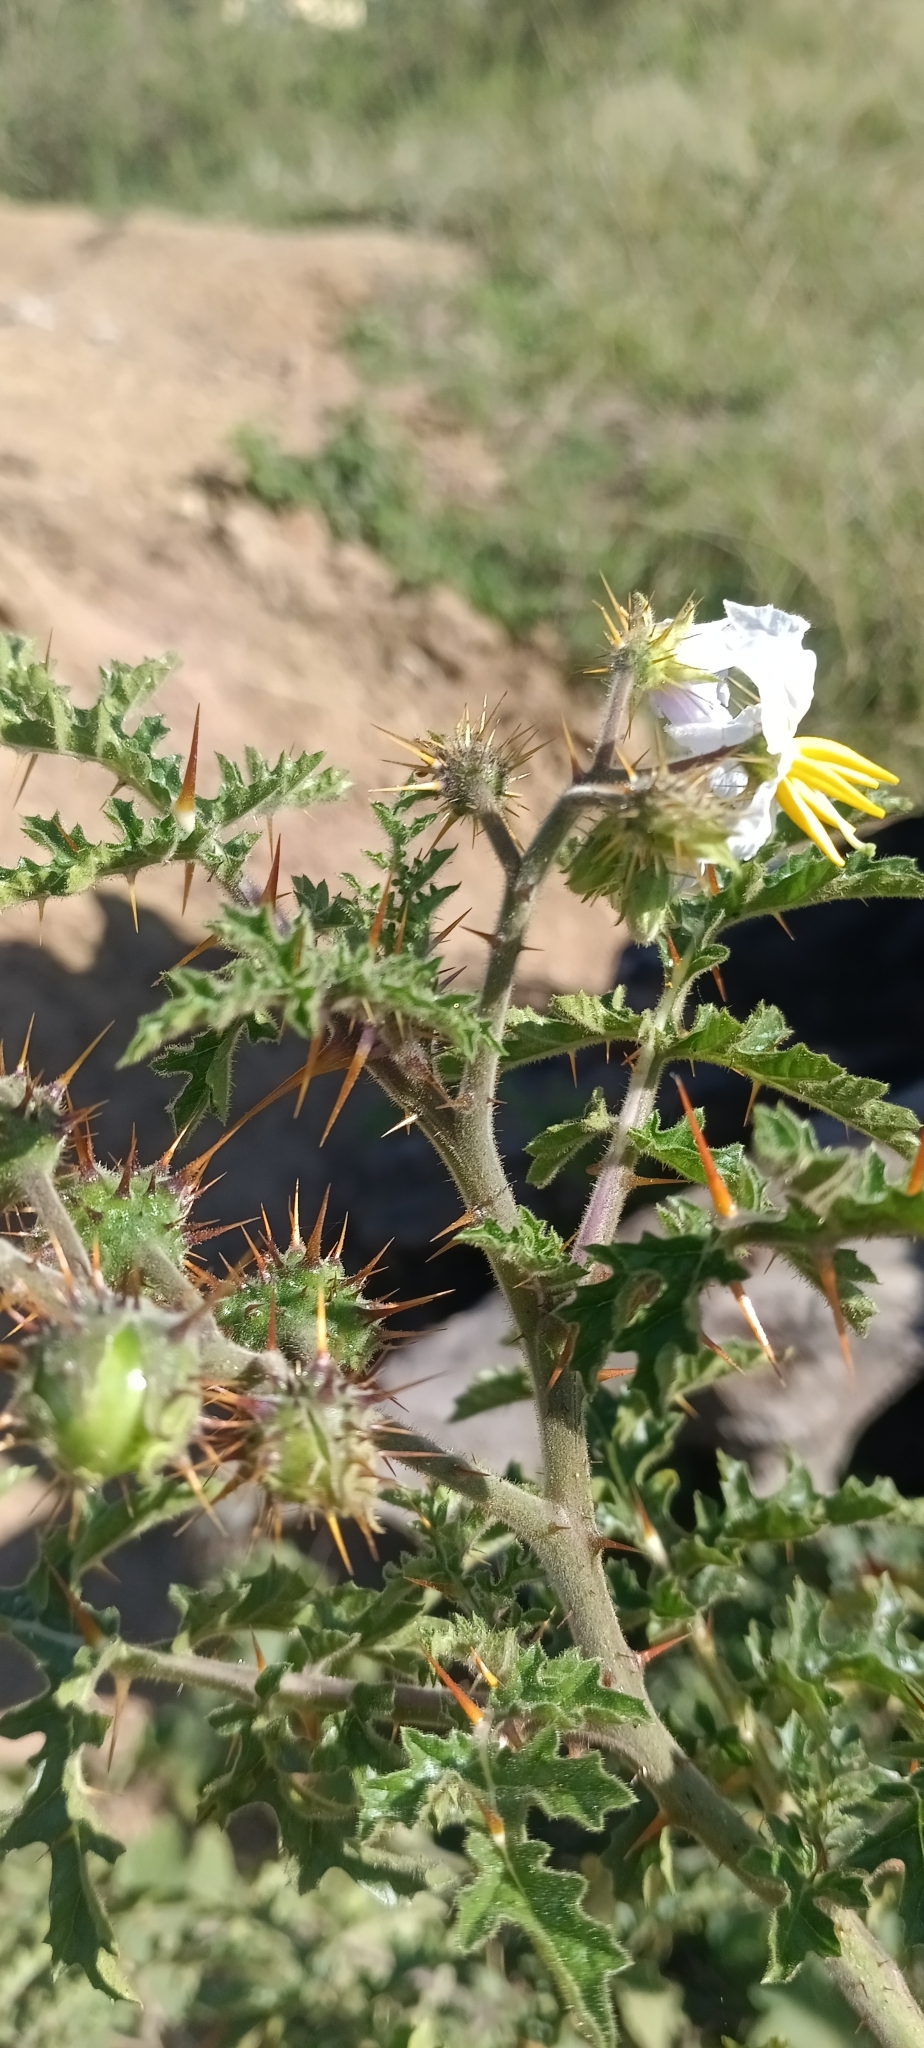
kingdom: Plantae
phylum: Tracheophyta
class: Magnoliopsida
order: Solanales
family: Solanaceae
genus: Solanum
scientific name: Solanum sisymbriifolium
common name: Red buffalo-bur
